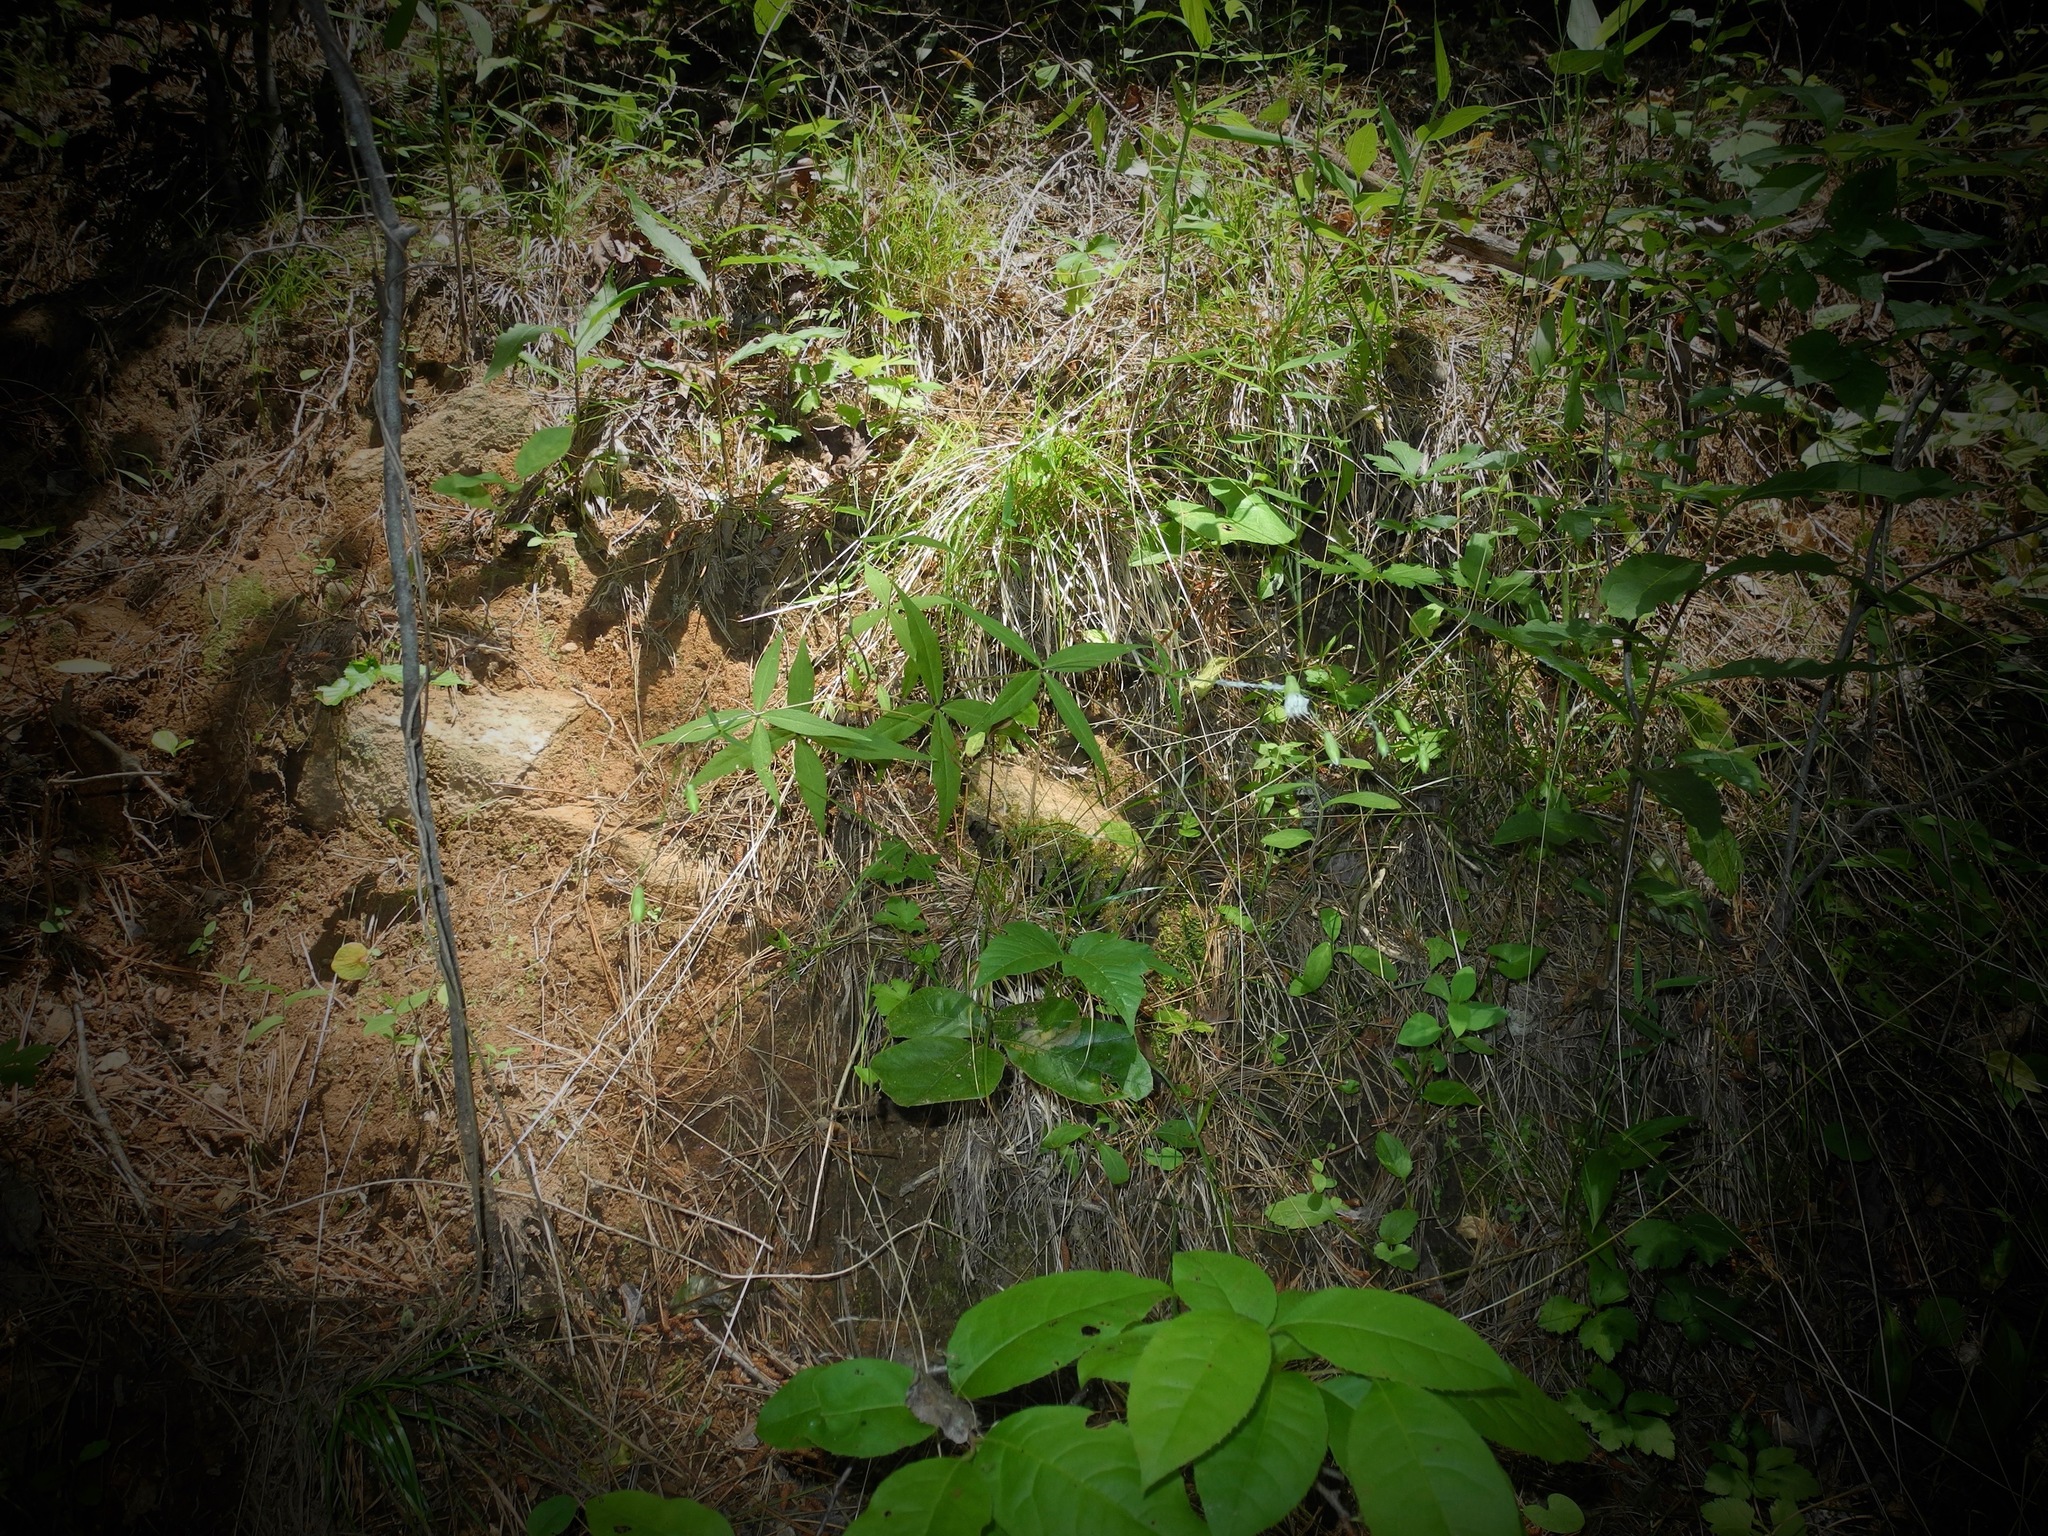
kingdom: Plantae
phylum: Tracheophyta
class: Magnoliopsida
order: Caryophyllales
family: Caryophyllaceae
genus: Silene
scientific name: Silene stellata
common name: Starry campion
